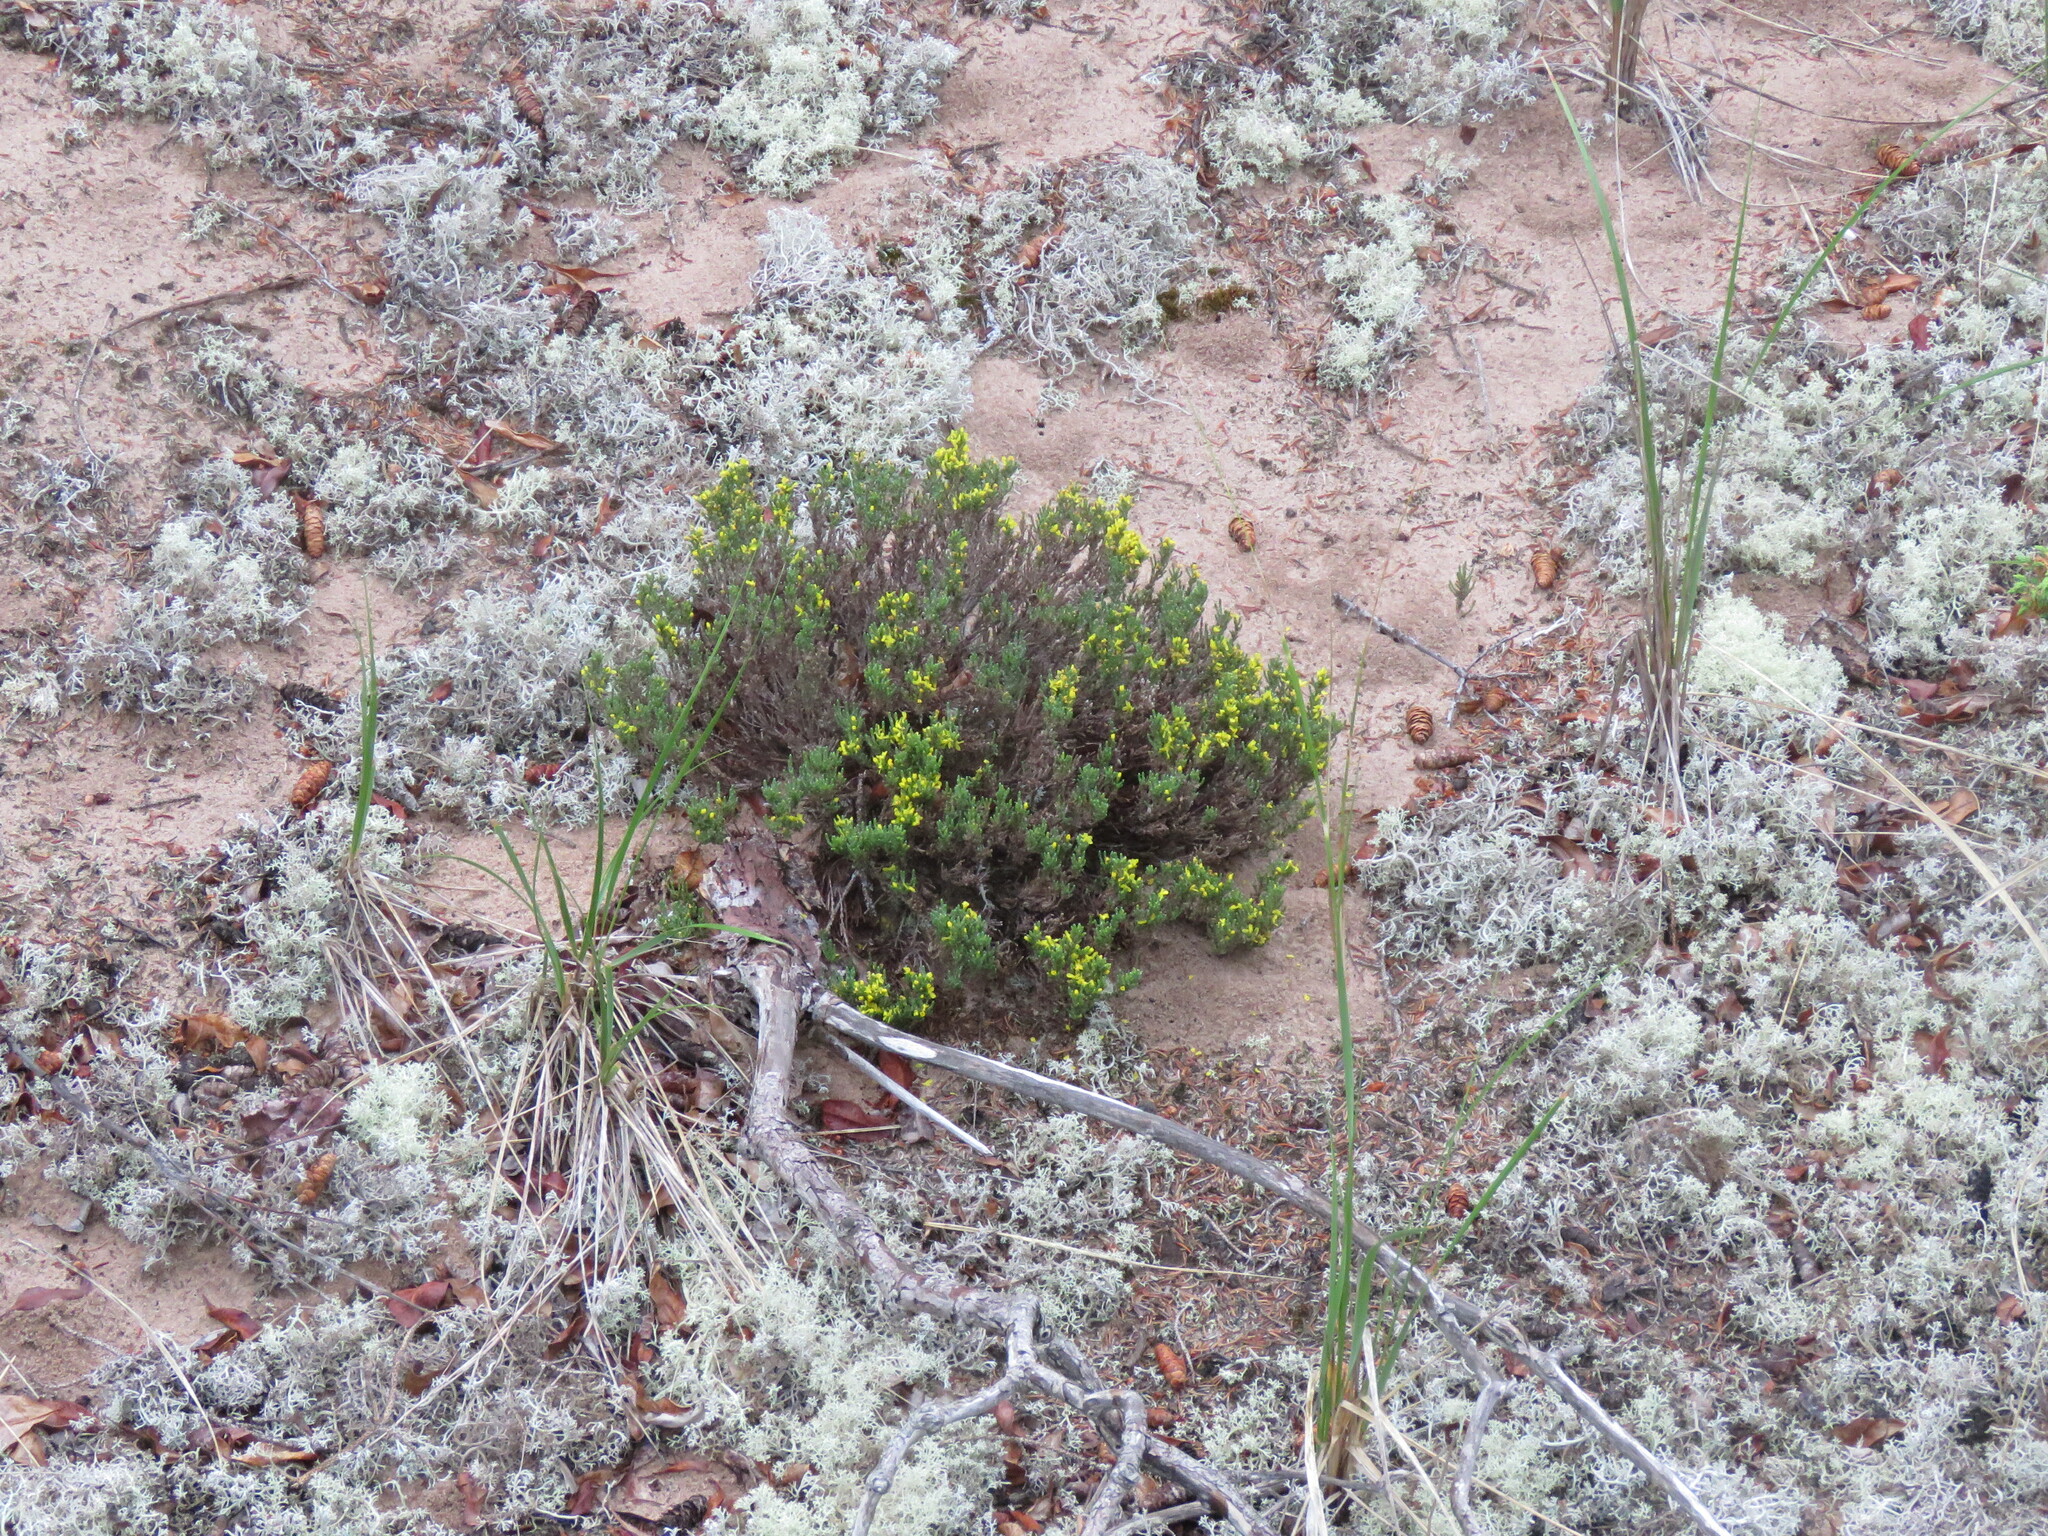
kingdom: Plantae
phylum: Tracheophyta
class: Magnoliopsida
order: Malvales
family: Cistaceae
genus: Hudsonia
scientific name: Hudsonia tomentosa
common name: Beach-heath
